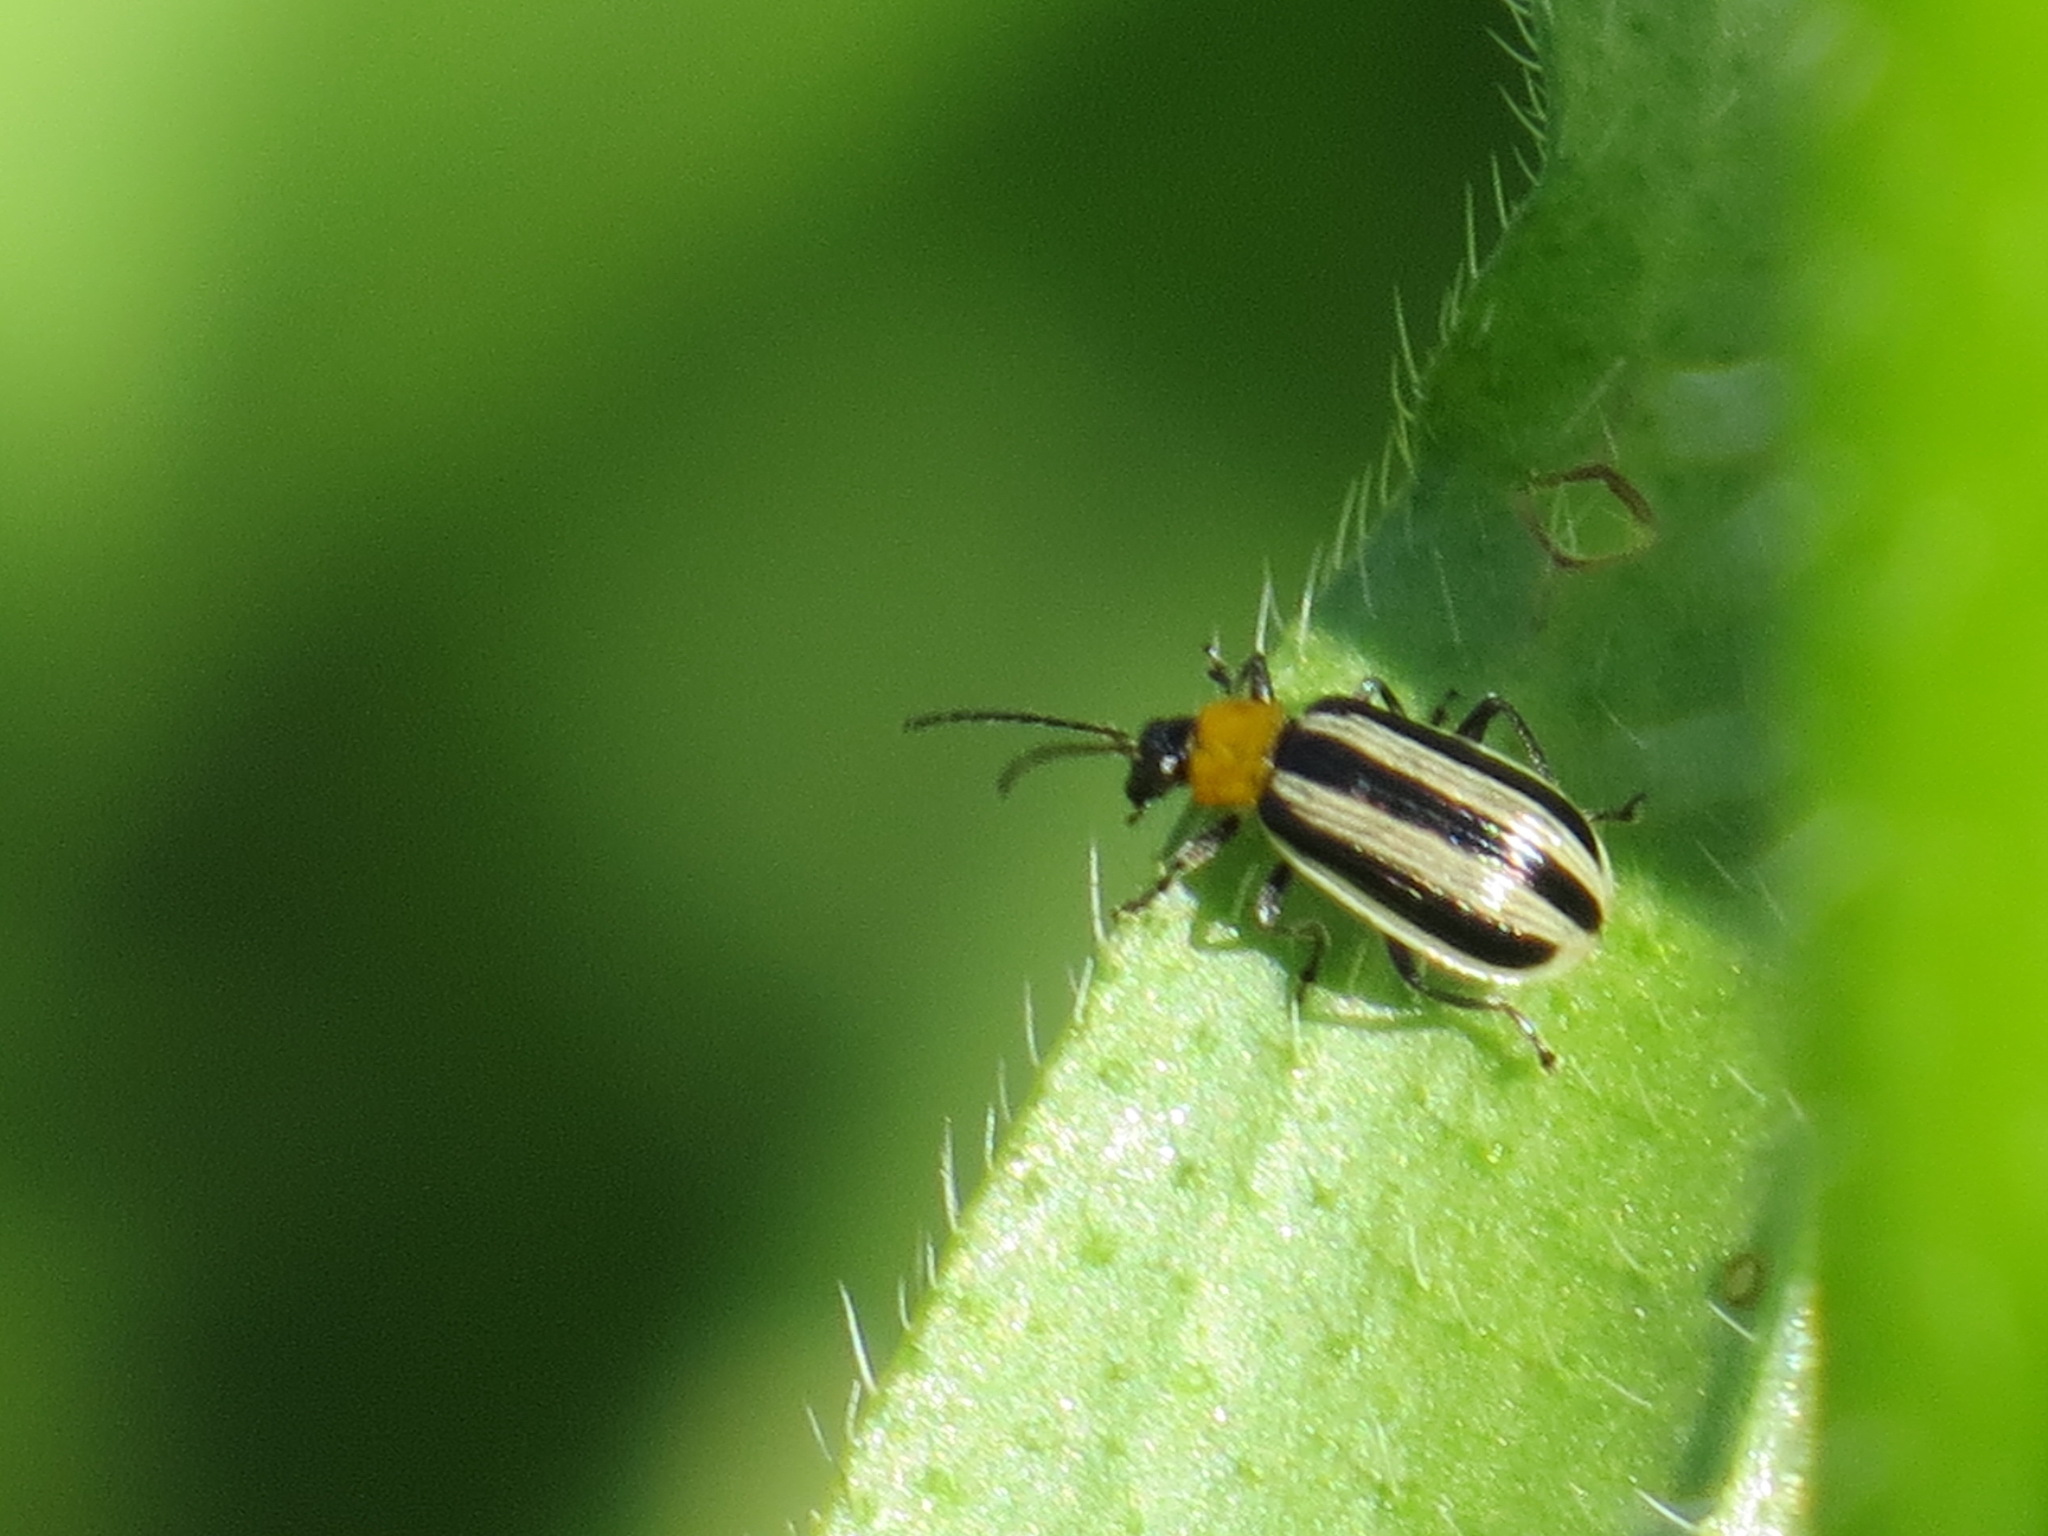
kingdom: Animalia
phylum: Arthropoda
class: Insecta
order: Coleoptera
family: Chrysomelidae
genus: Acalymma
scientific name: Acalymma trivittatum
